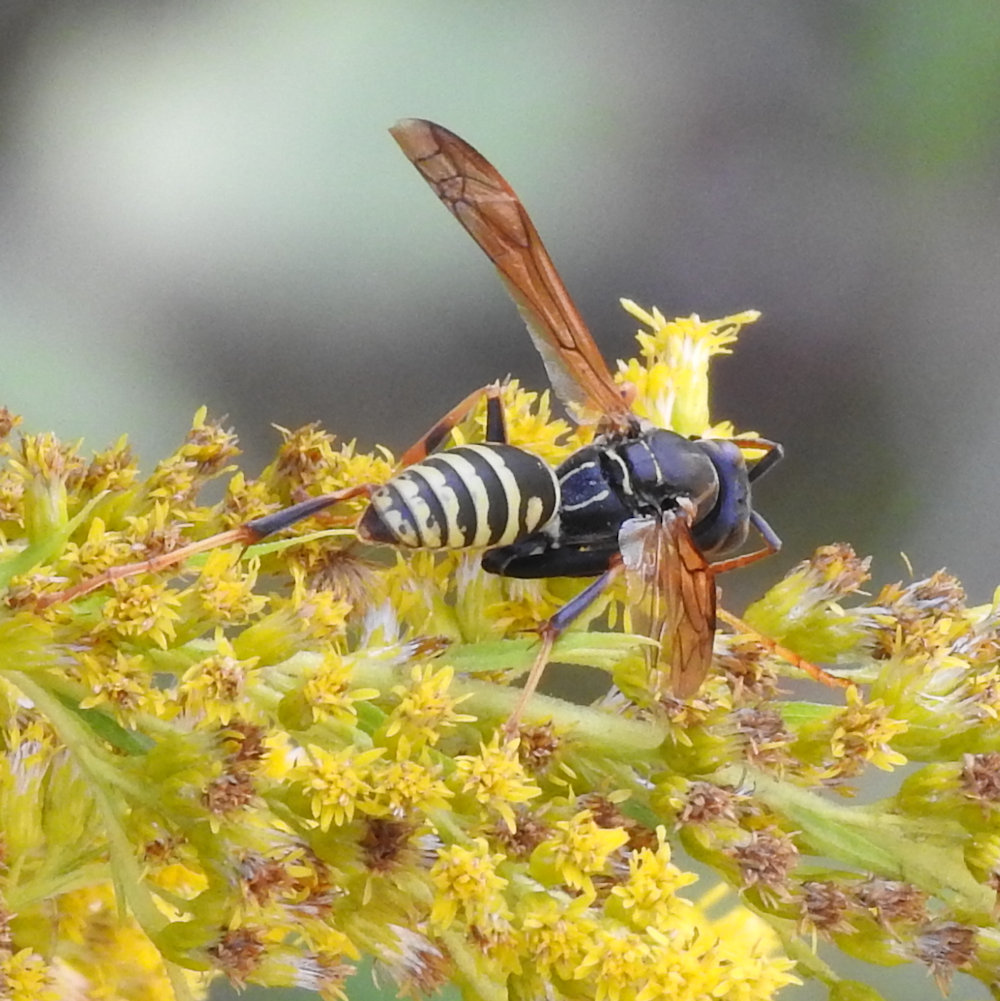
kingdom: Animalia
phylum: Arthropoda
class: Insecta
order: Hymenoptera
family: Eumenidae
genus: Polistes
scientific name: Polistes fuscatus
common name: Dark paper wasp
